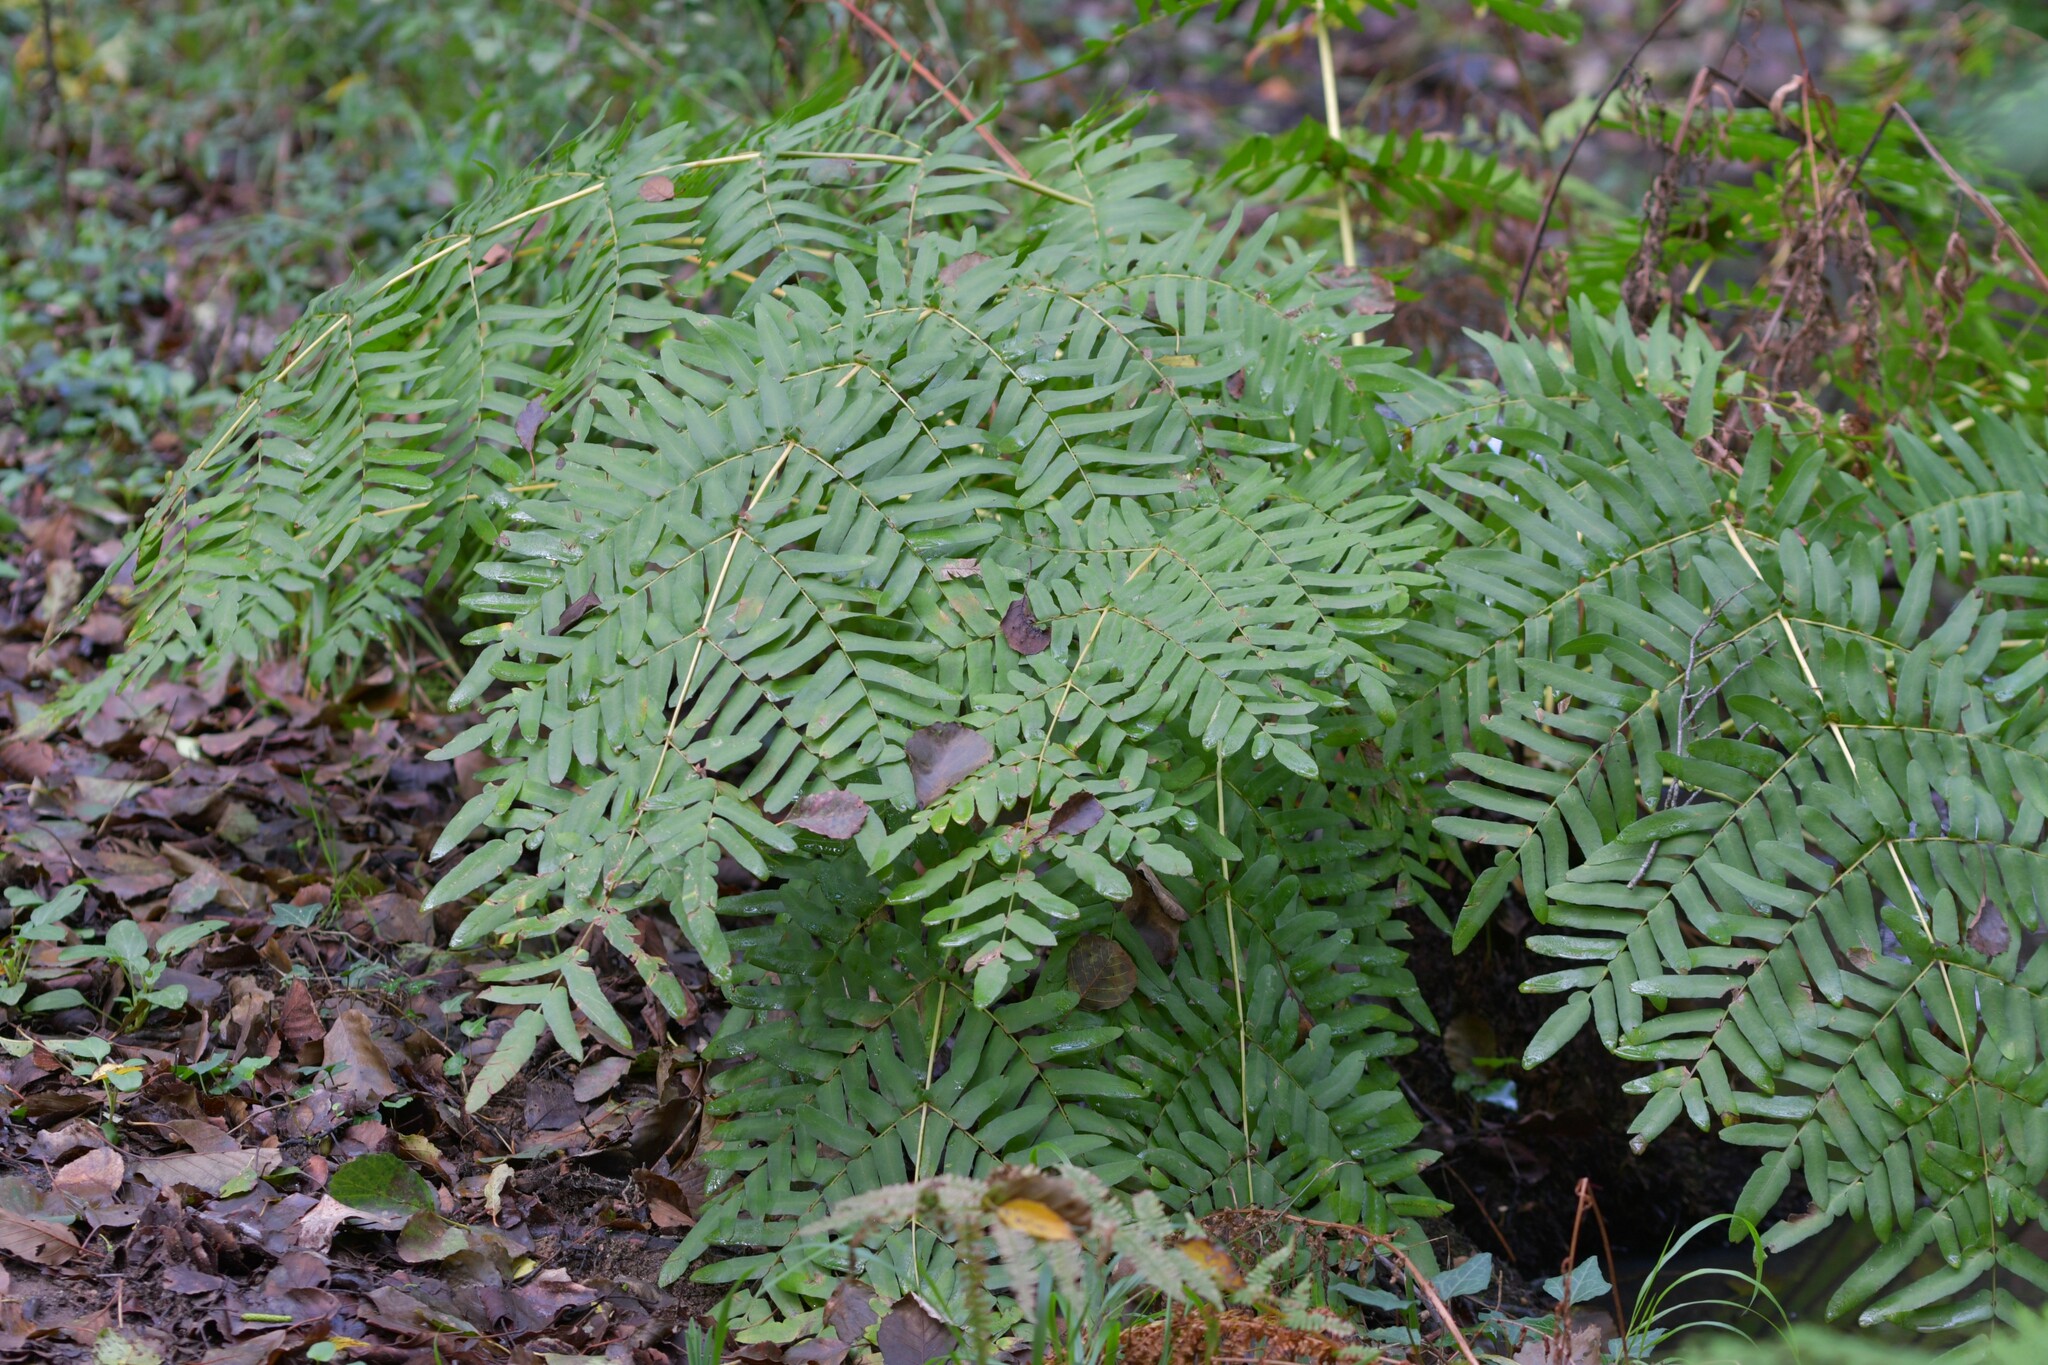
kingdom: Plantae
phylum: Tracheophyta
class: Polypodiopsida
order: Osmundales
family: Osmundaceae
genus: Osmunda
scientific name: Osmunda regalis
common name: Royal fern
